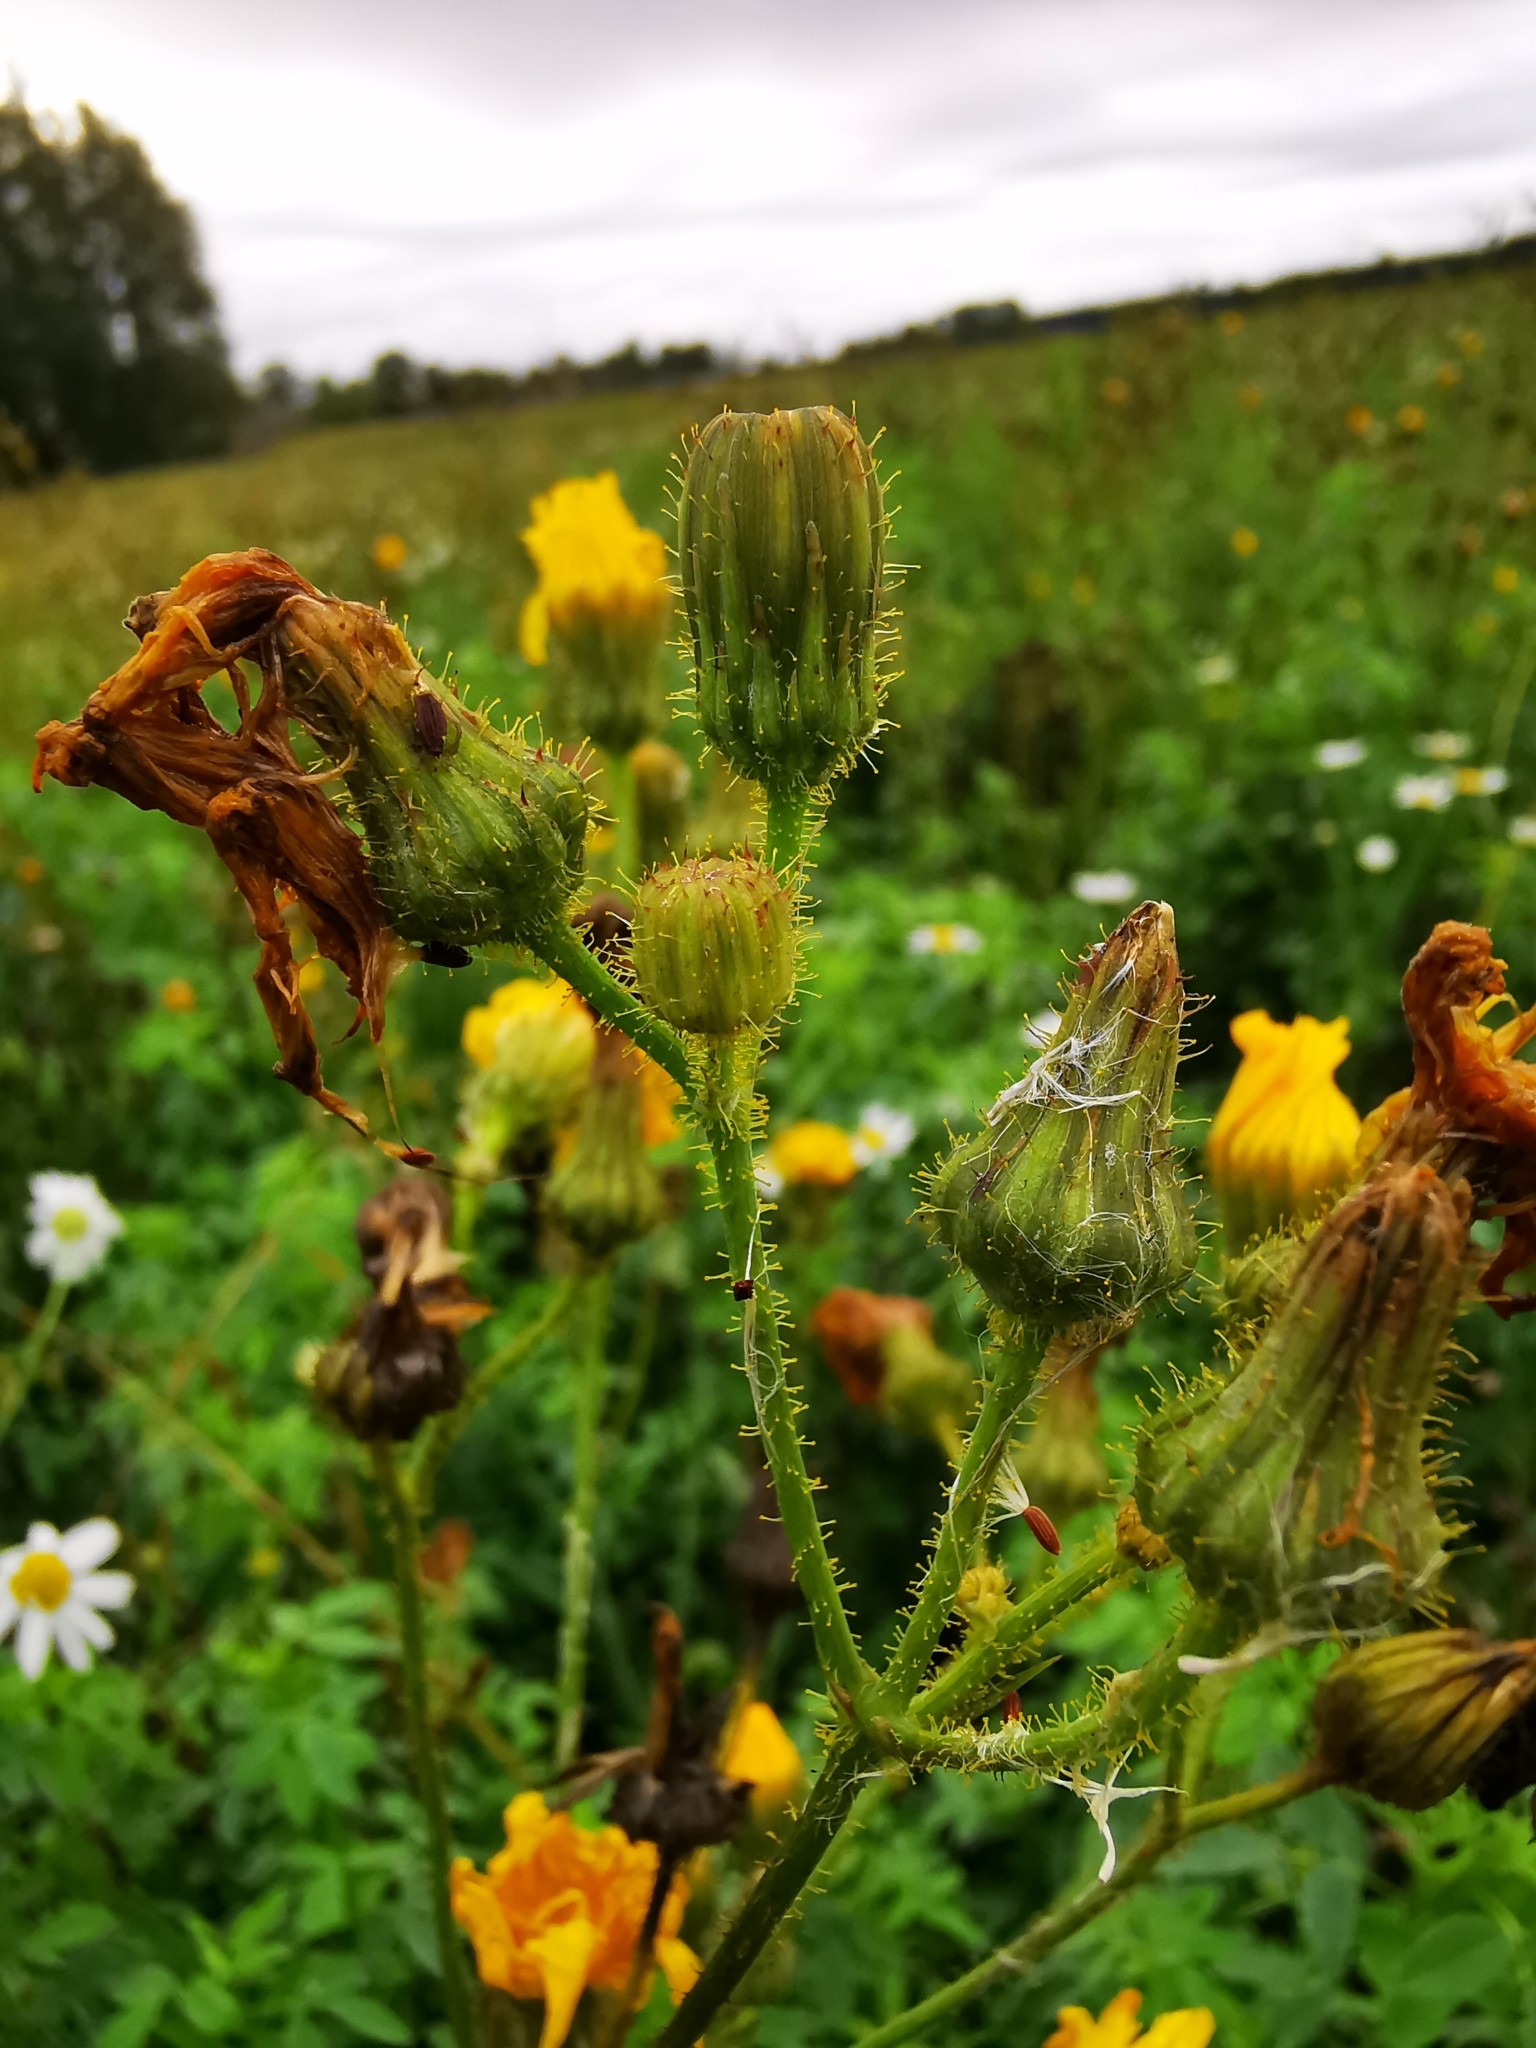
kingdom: Plantae
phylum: Tracheophyta
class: Magnoliopsida
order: Asterales
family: Asteraceae
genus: Sonchus
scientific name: Sonchus arvensis
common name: Perennial sow-thistle
